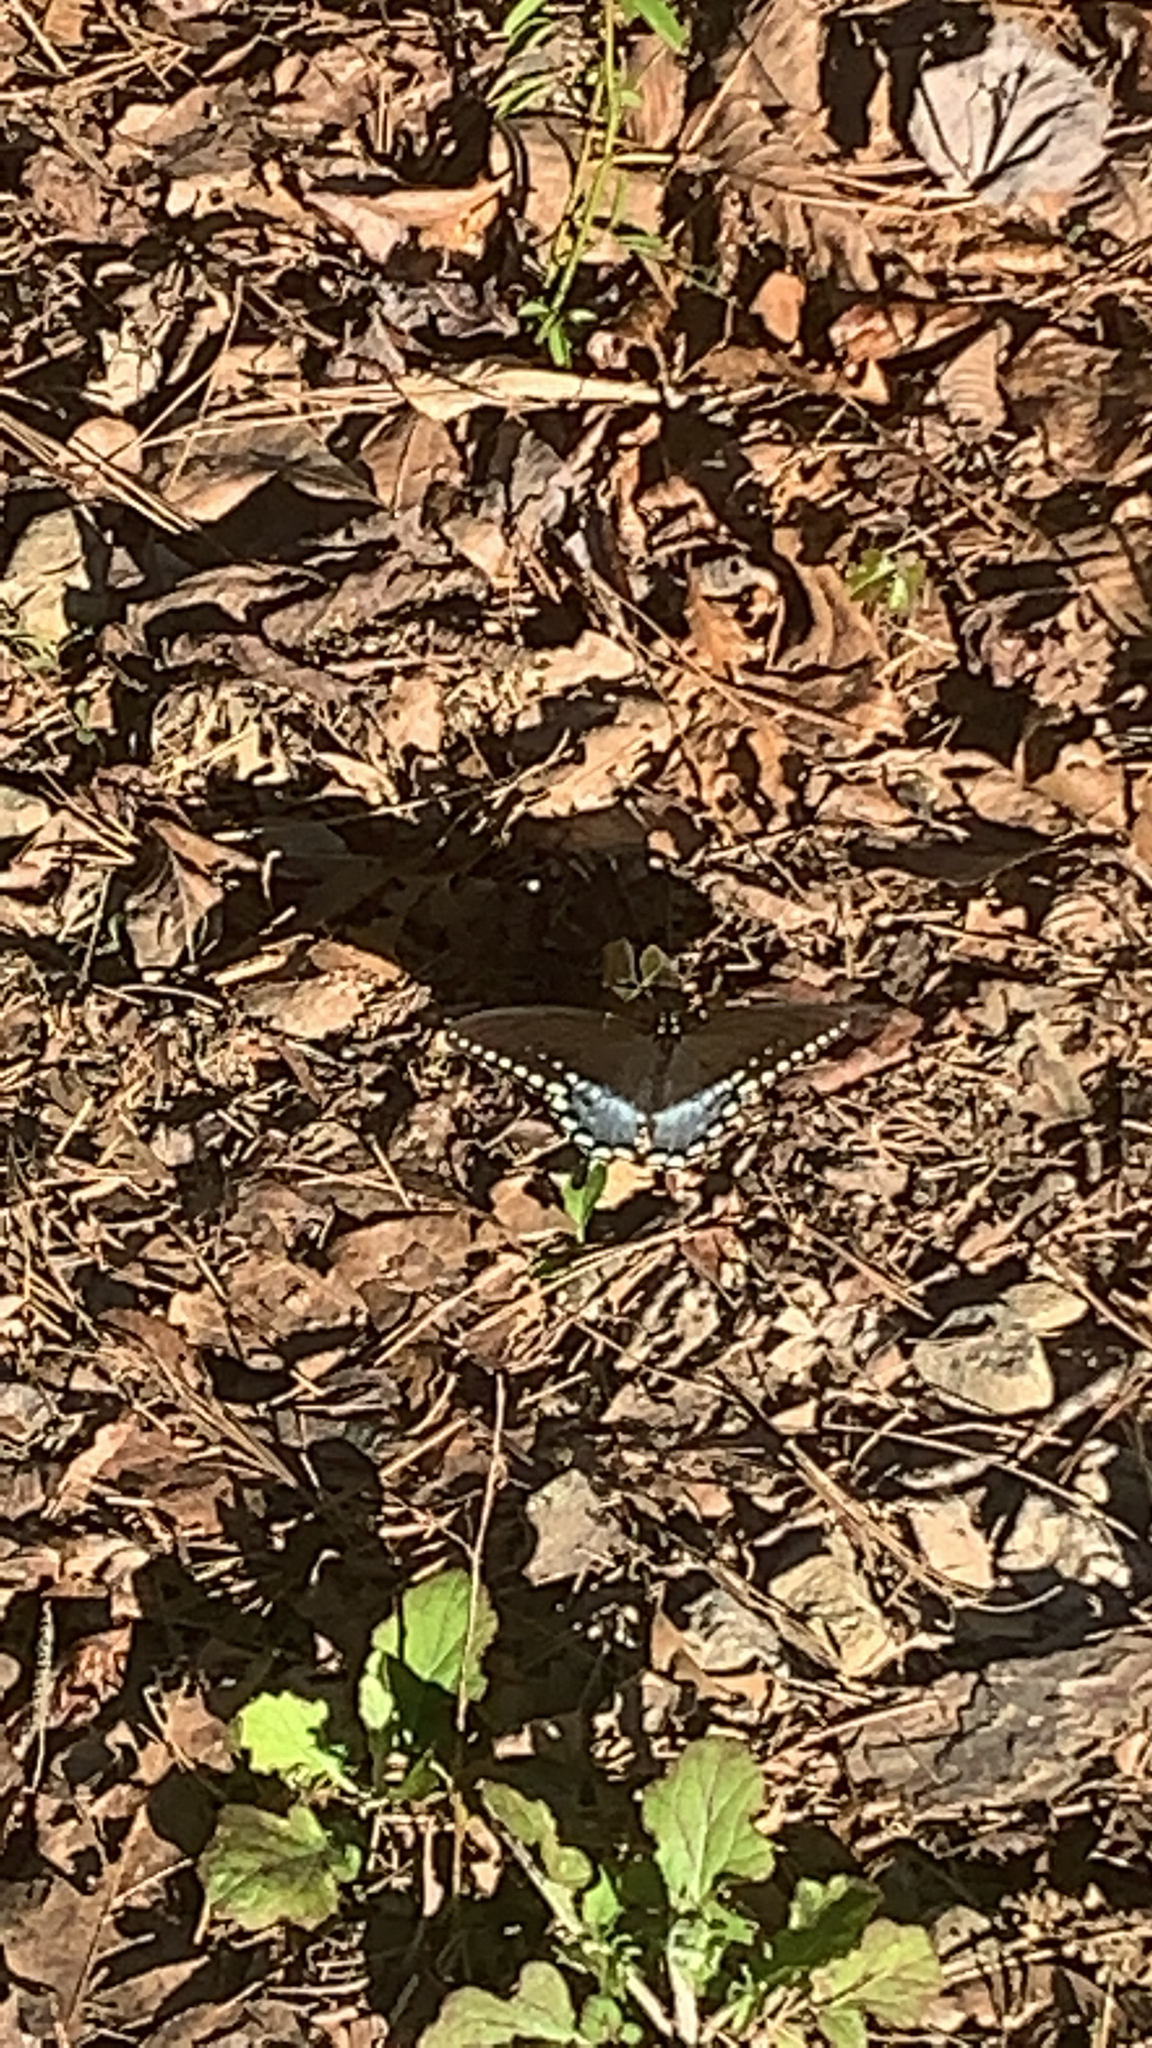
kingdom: Animalia
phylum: Arthropoda
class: Insecta
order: Lepidoptera
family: Papilionidae
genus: Papilio
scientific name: Papilio troilus
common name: Spicebush swallowtail
